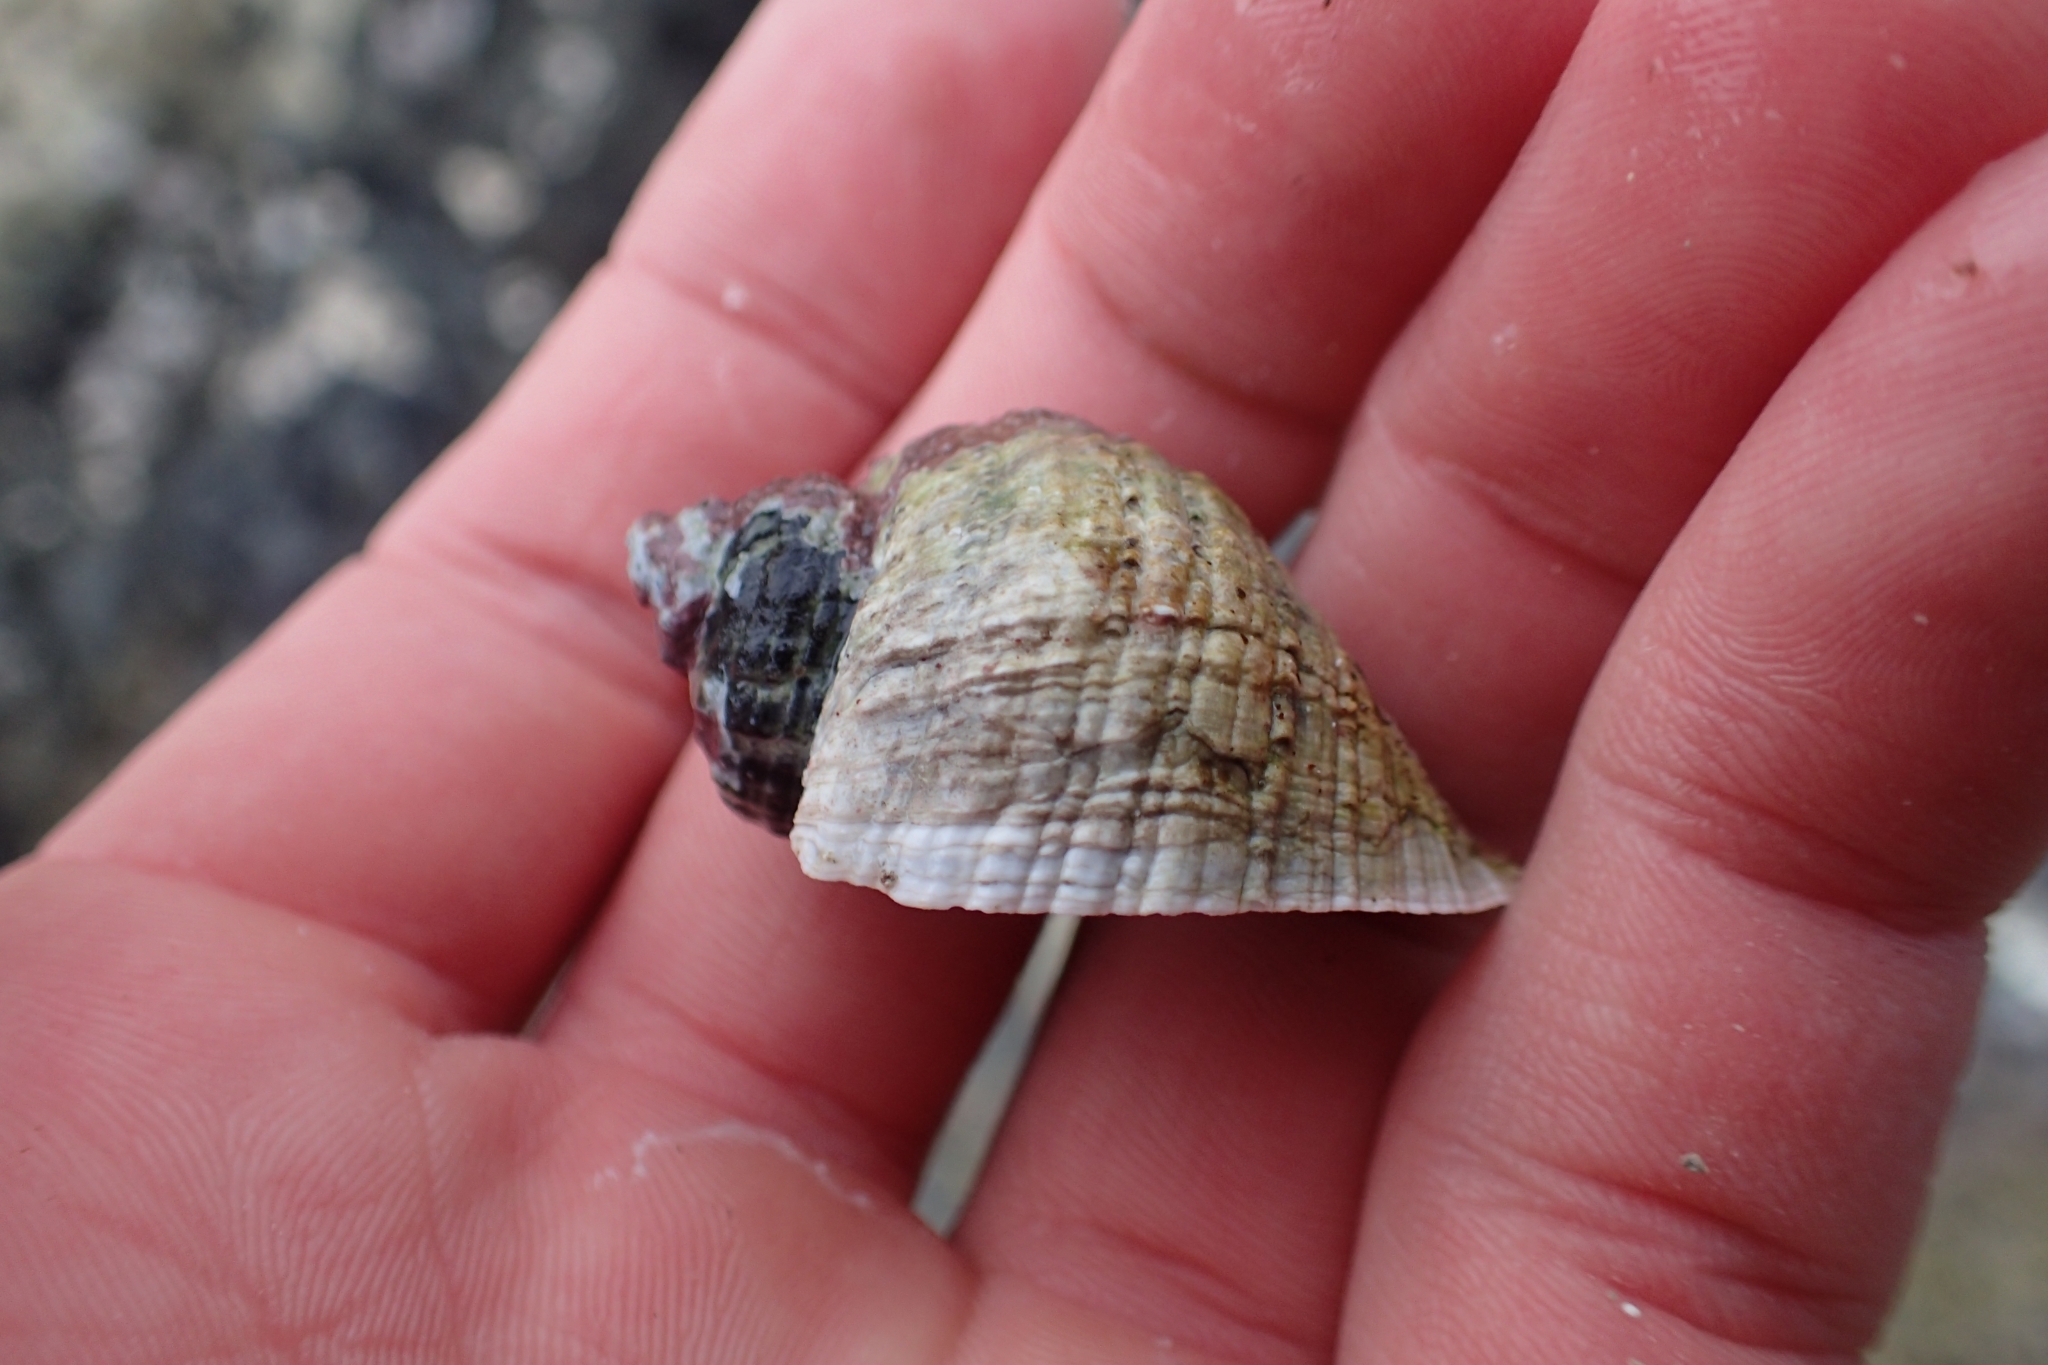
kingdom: Animalia
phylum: Mollusca
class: Gastropoda
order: Neogastropoda
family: Muricidae
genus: Haustrum
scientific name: Haustrum haustorium
